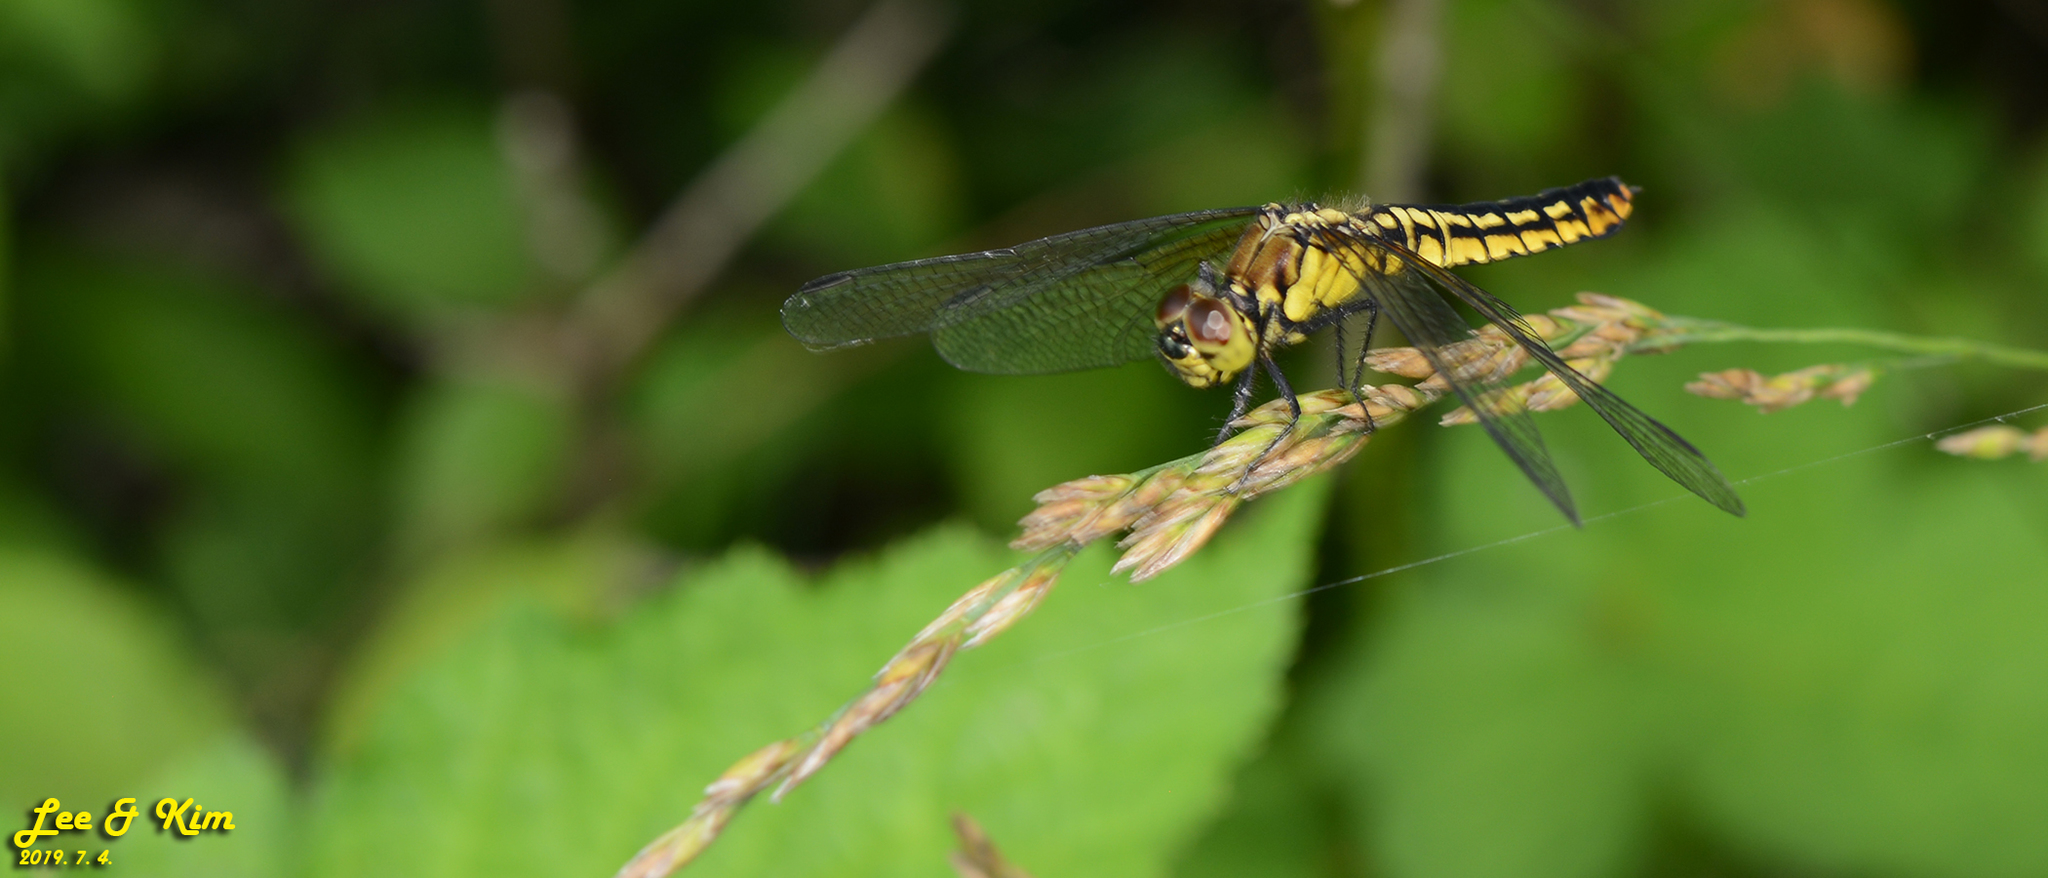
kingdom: Animalia
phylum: Arthropoda
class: Insecta
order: Odonata
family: Libellulidae
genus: Lyriothemis
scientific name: Lyriothemis pachygastra
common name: Wide-bellied skimmer
